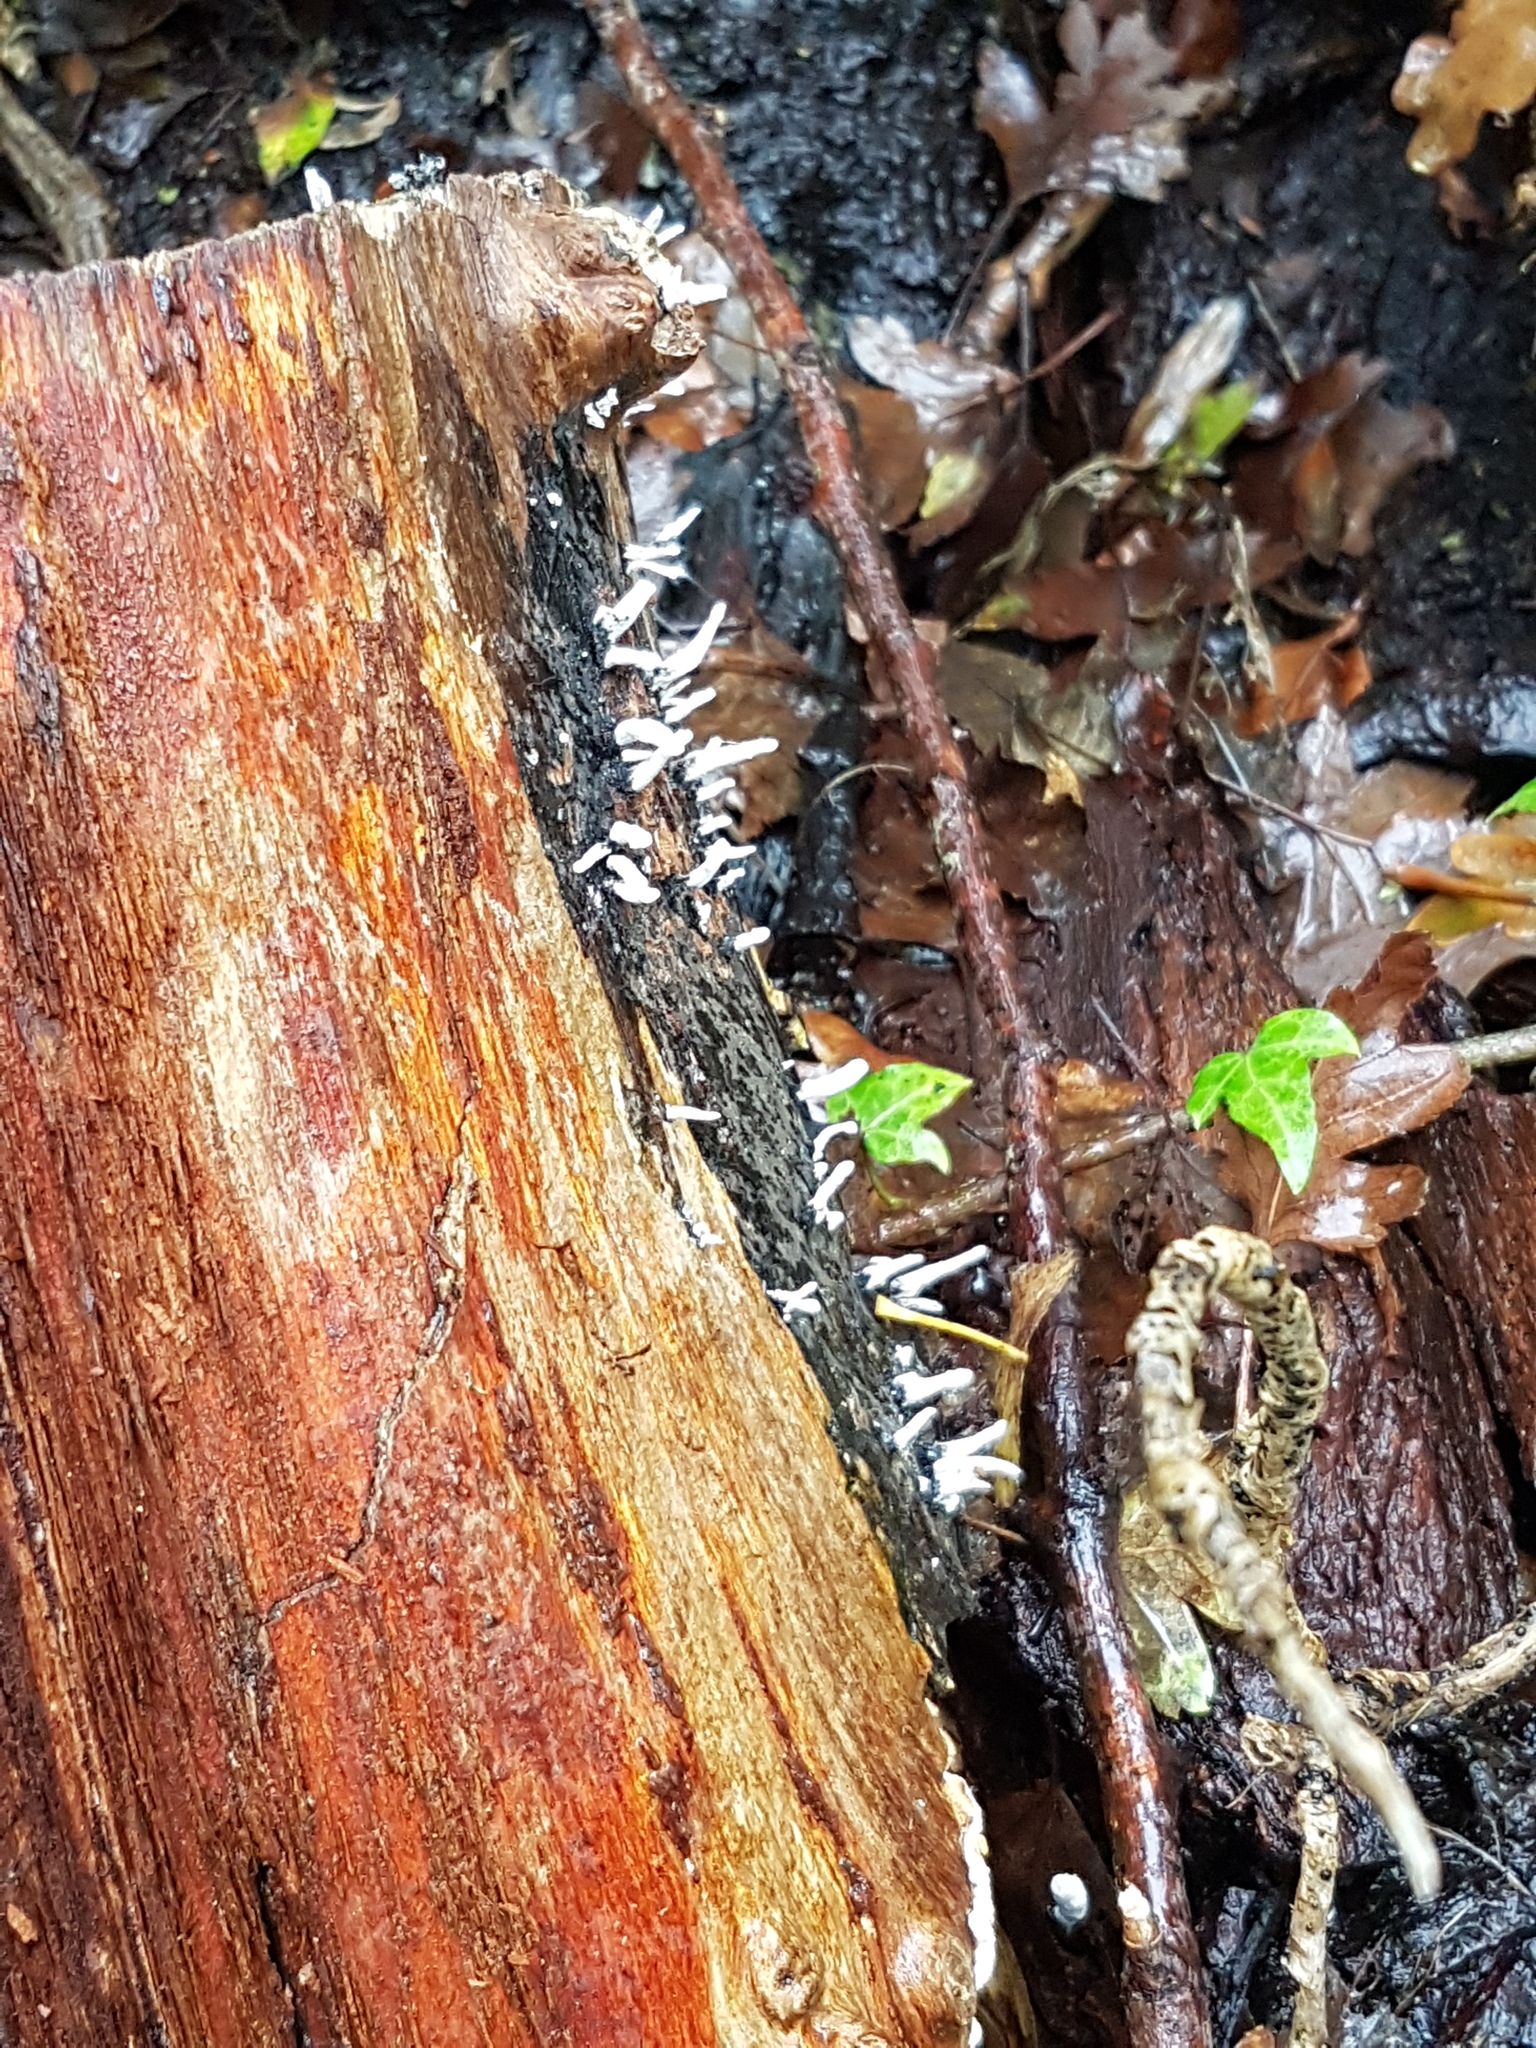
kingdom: Fungi
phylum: Ascomycota
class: Sordariomycetes
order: Xylariales
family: Xylariaceae
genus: Xylaria
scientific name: Xylaria hypoxylon
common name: Candle-snuff fungus
